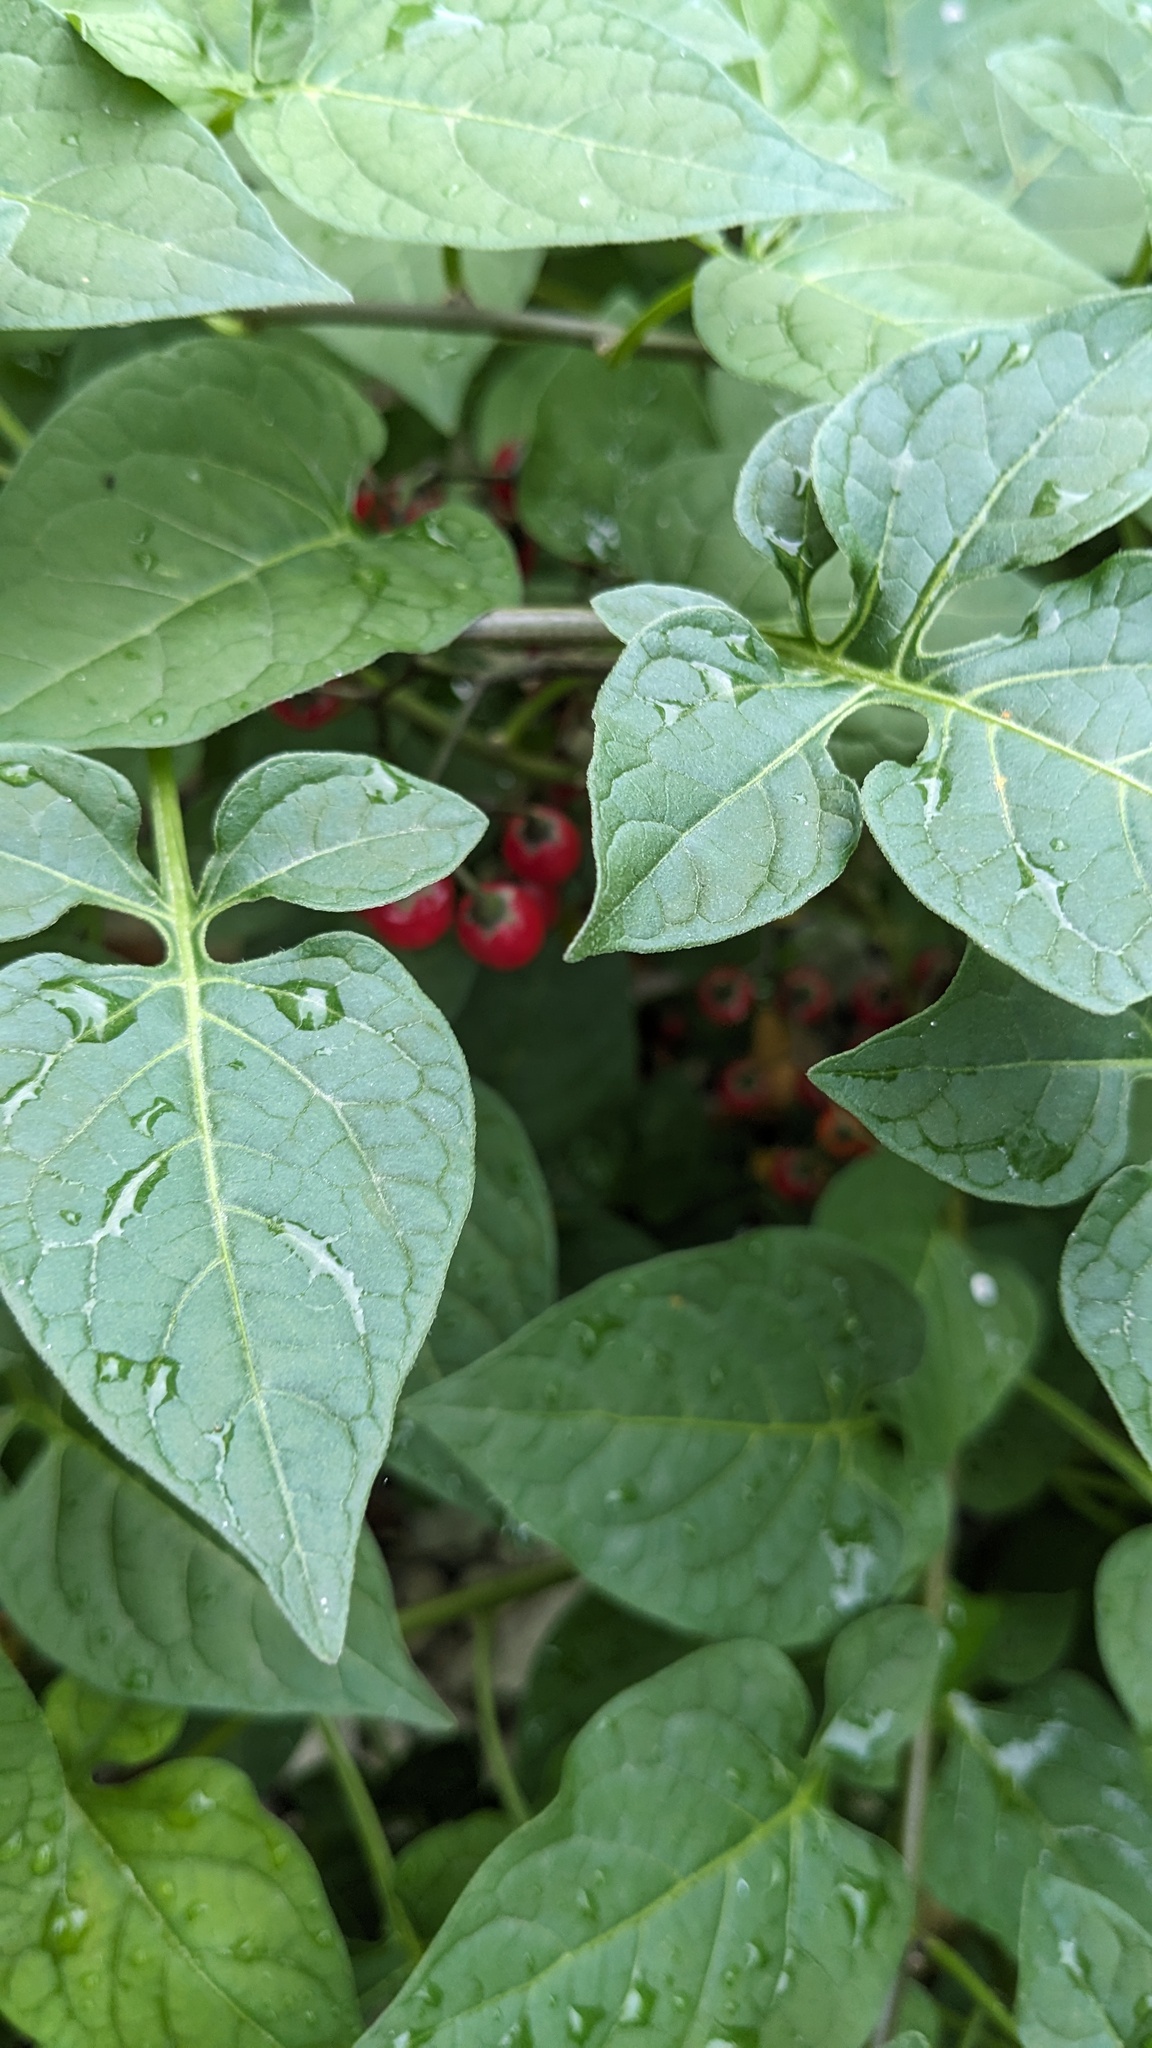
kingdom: Plantae
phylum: Tracheophyta
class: Magnoliopsida
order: Solanales
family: Solanaceae
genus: Solanum
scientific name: Solanum dulcamara
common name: Climbing nightshade
